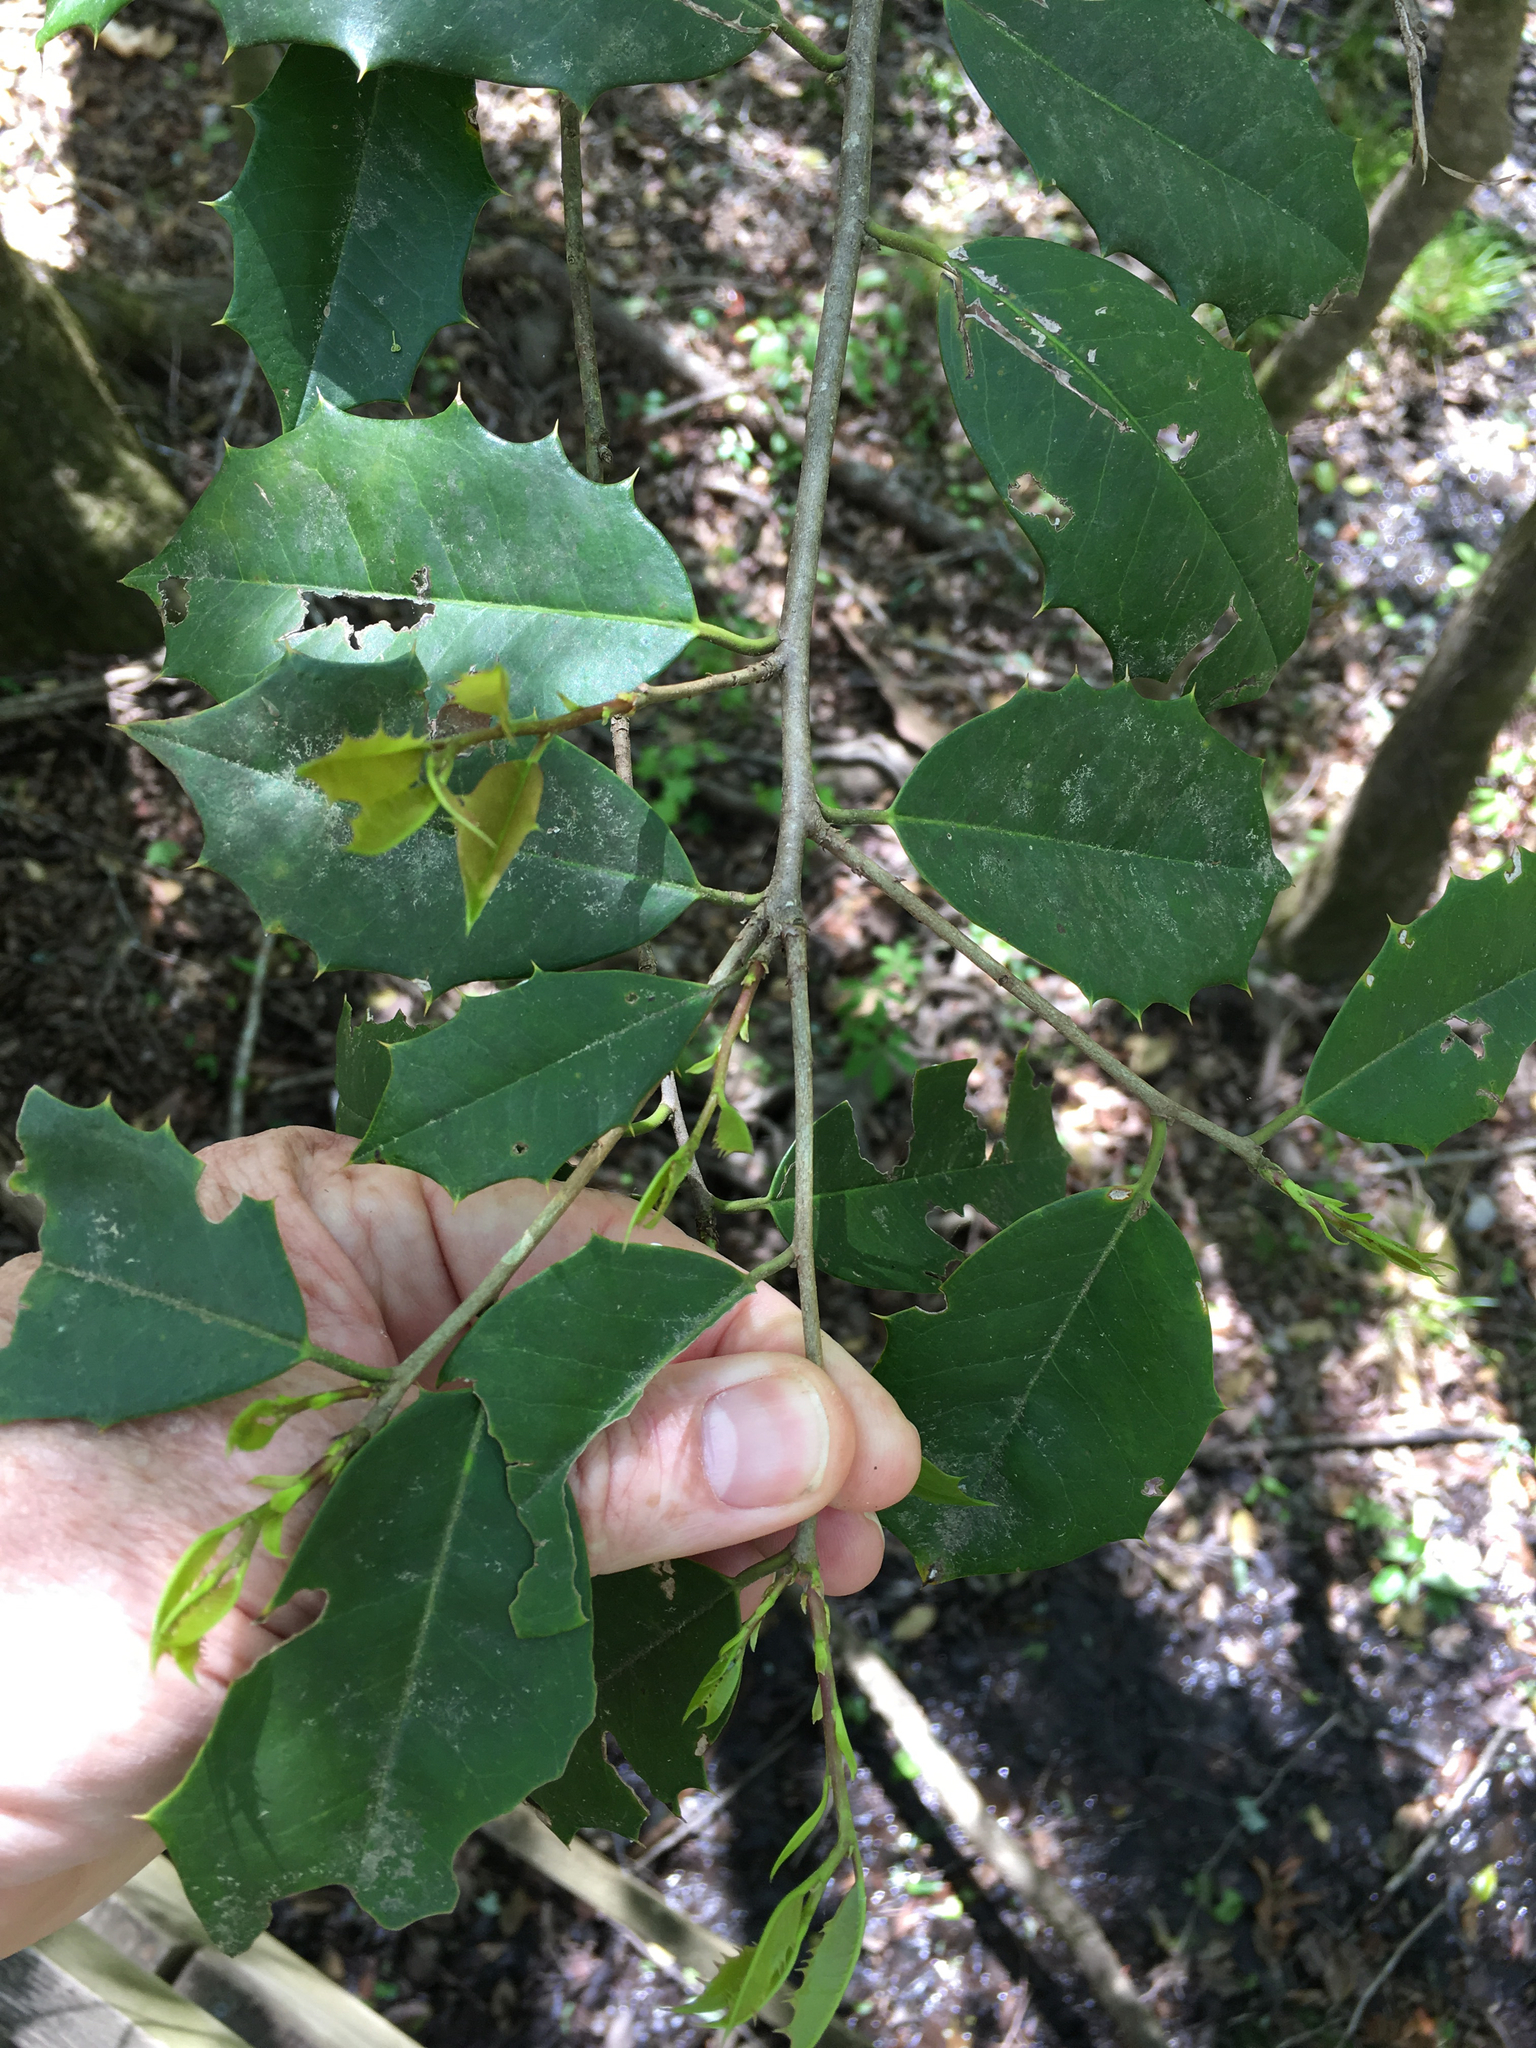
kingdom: Plantae
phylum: Tracheophyta
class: Magnoliopsida
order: Aquifoliales
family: Aquifoliaceae
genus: Ilex
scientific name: Ilex opaca
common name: American holly
